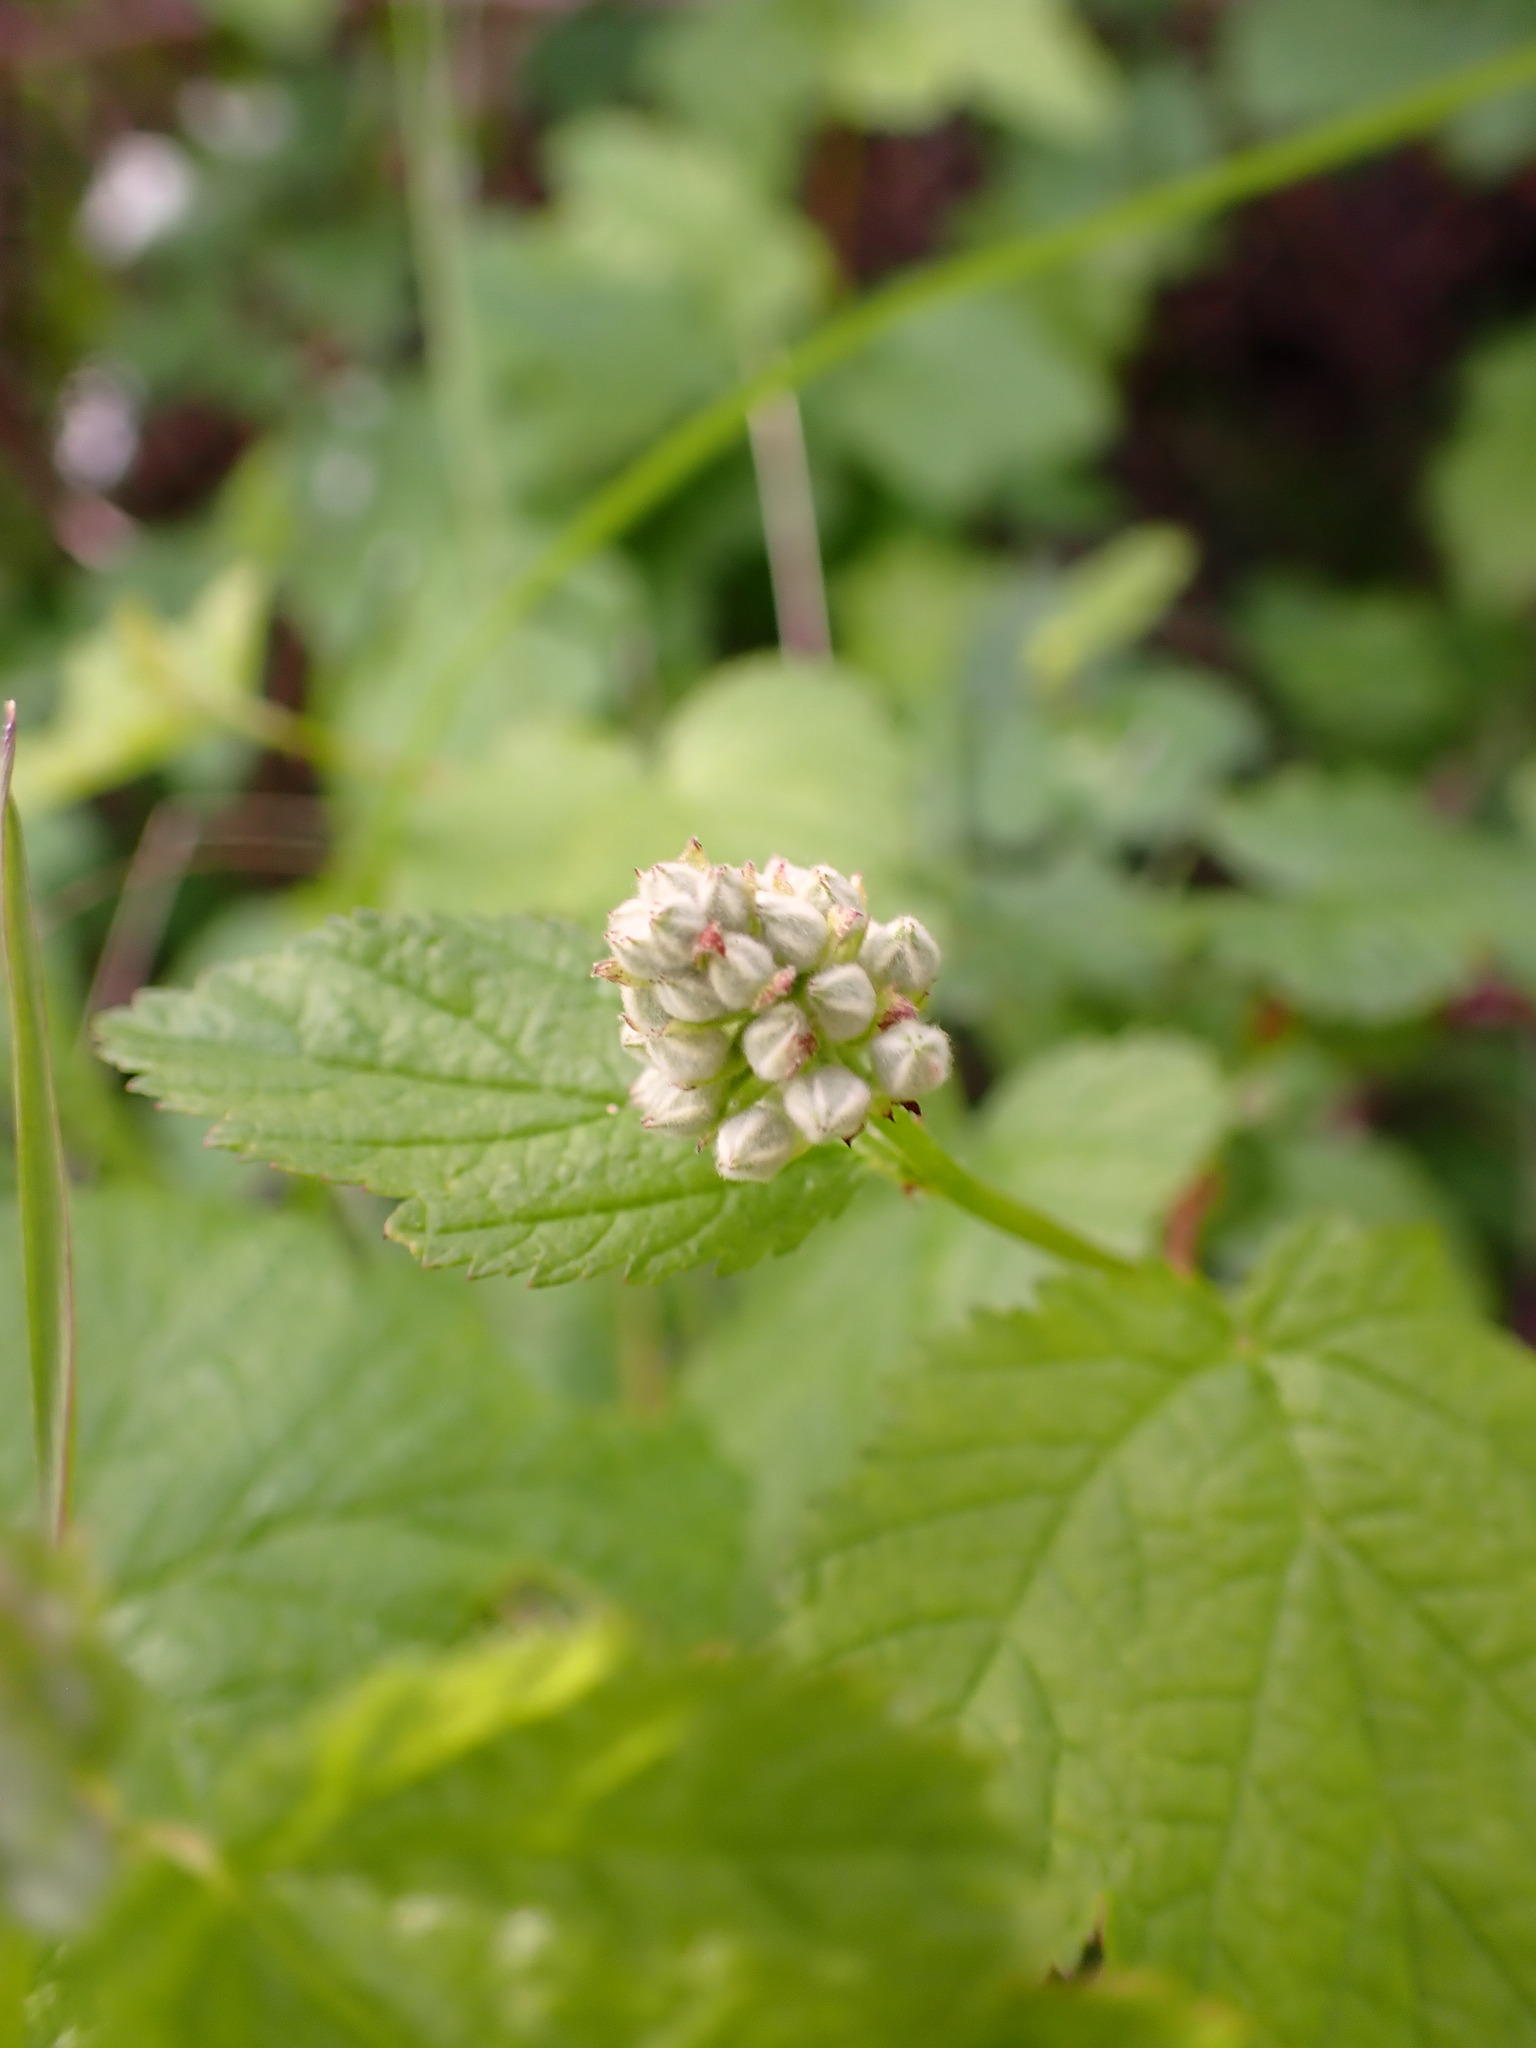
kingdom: Plantae
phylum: Tracheophyta
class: Magnoliopsida
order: Rosales
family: Rosaceae
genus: Physocarpus
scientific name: Physocarpus capitatus
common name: Pacific ninebark
